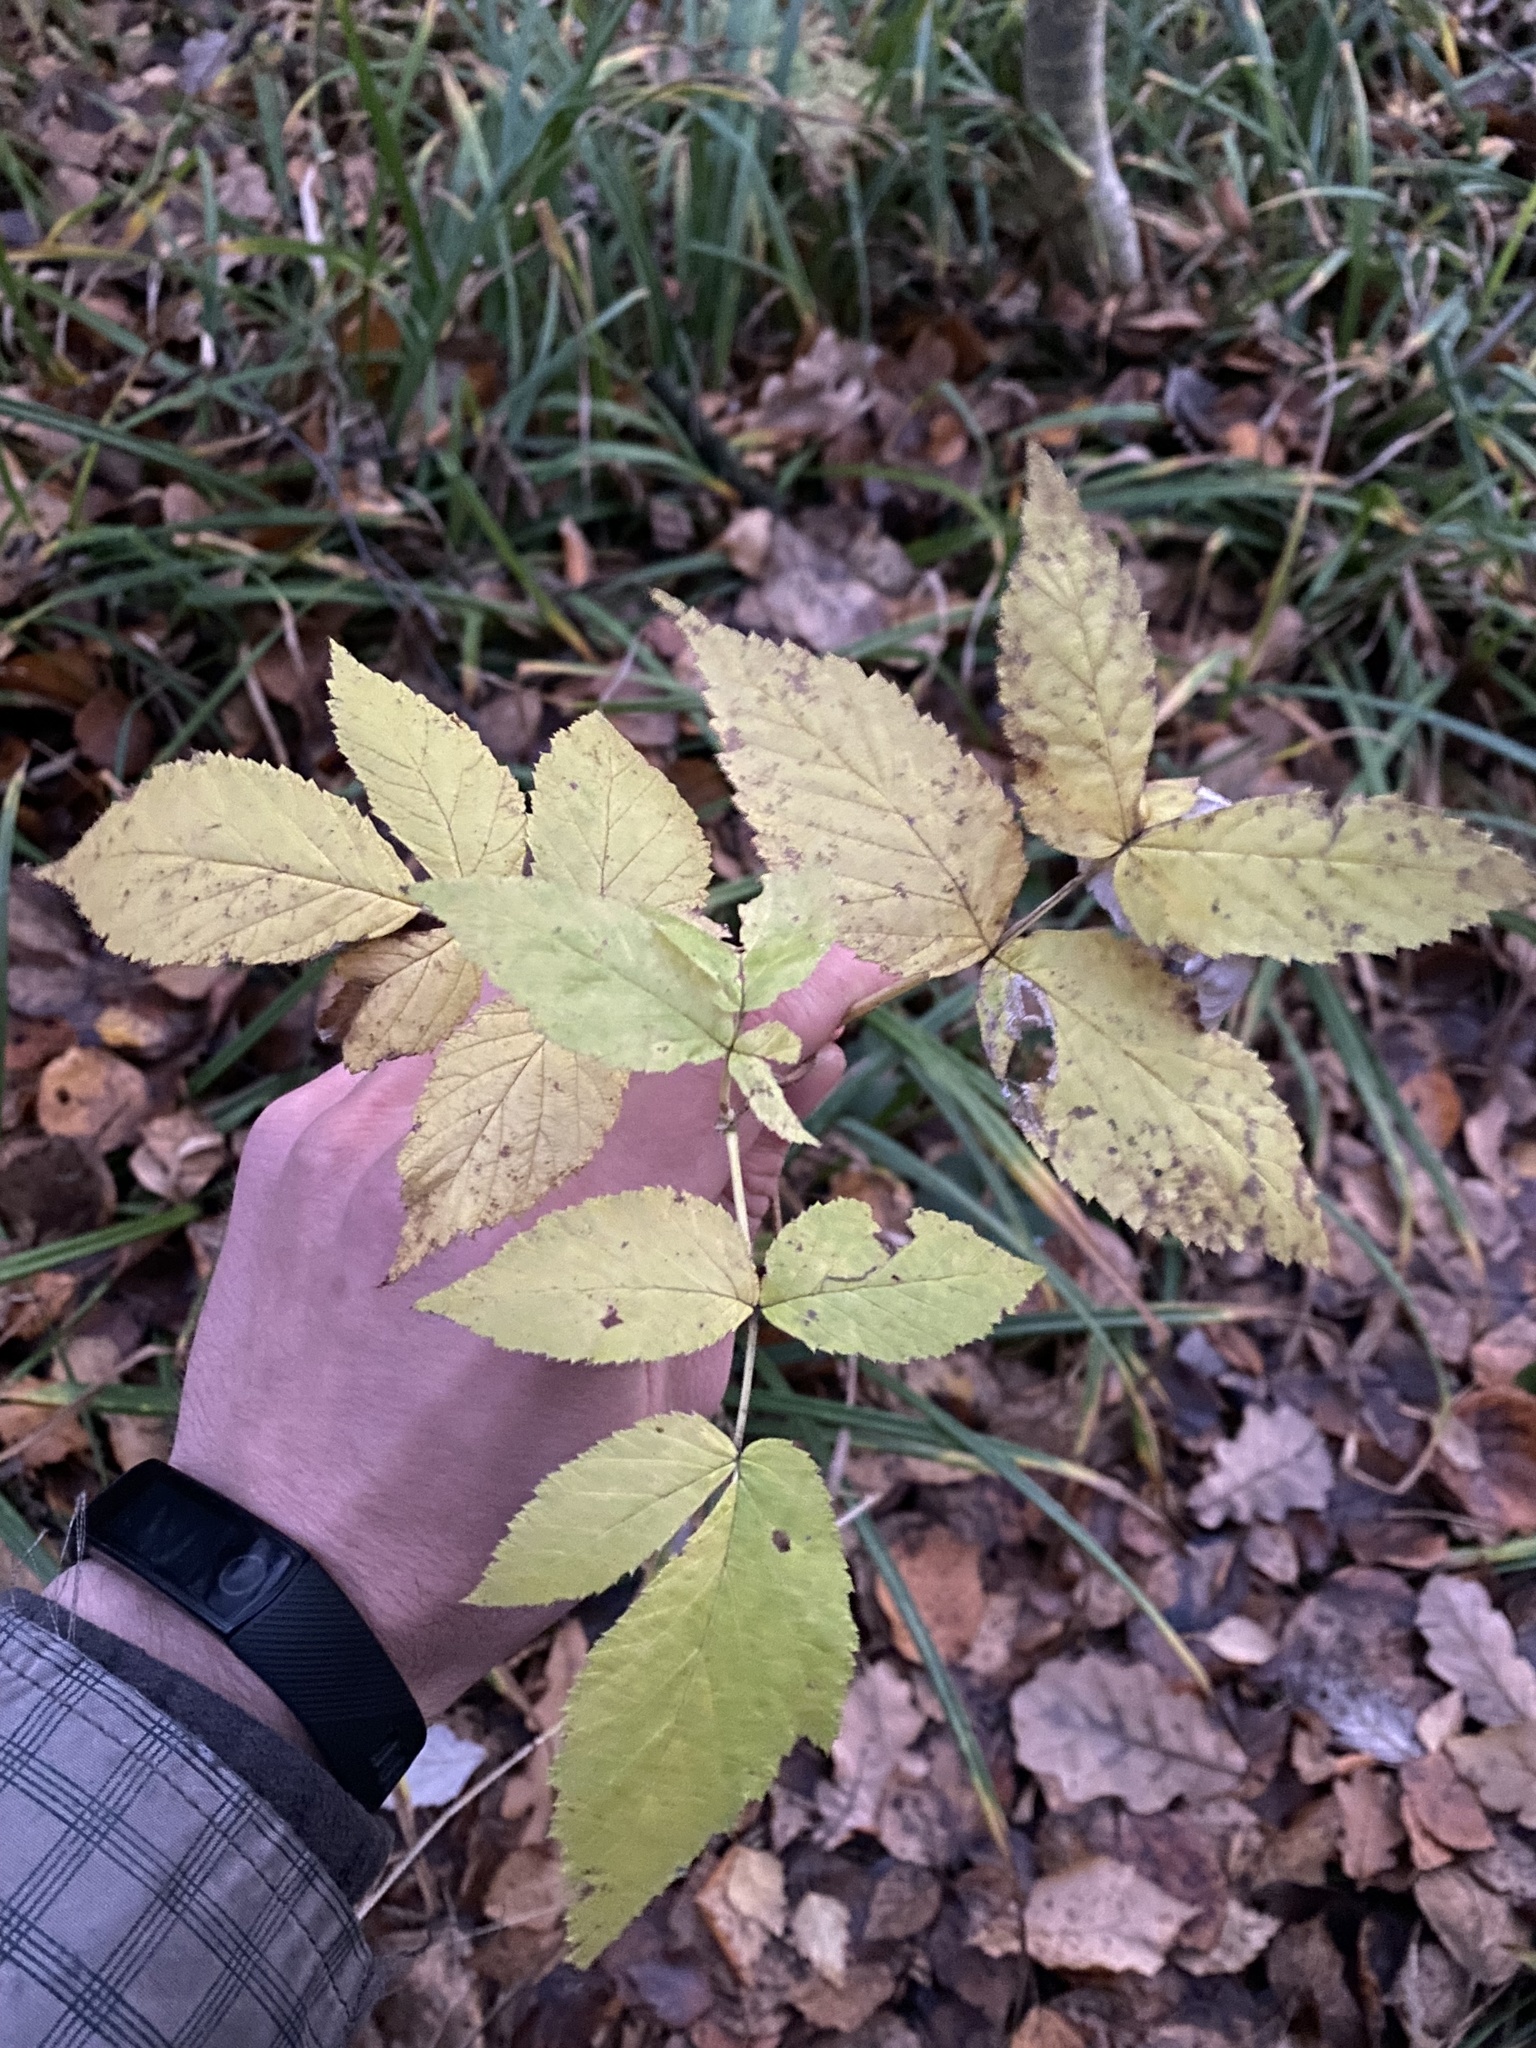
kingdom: Plantae
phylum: Tracheophyta
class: Magnoliopsida
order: Rosales
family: Rosaceae
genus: Rubus
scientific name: Rubus idaeus
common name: Raspberry
